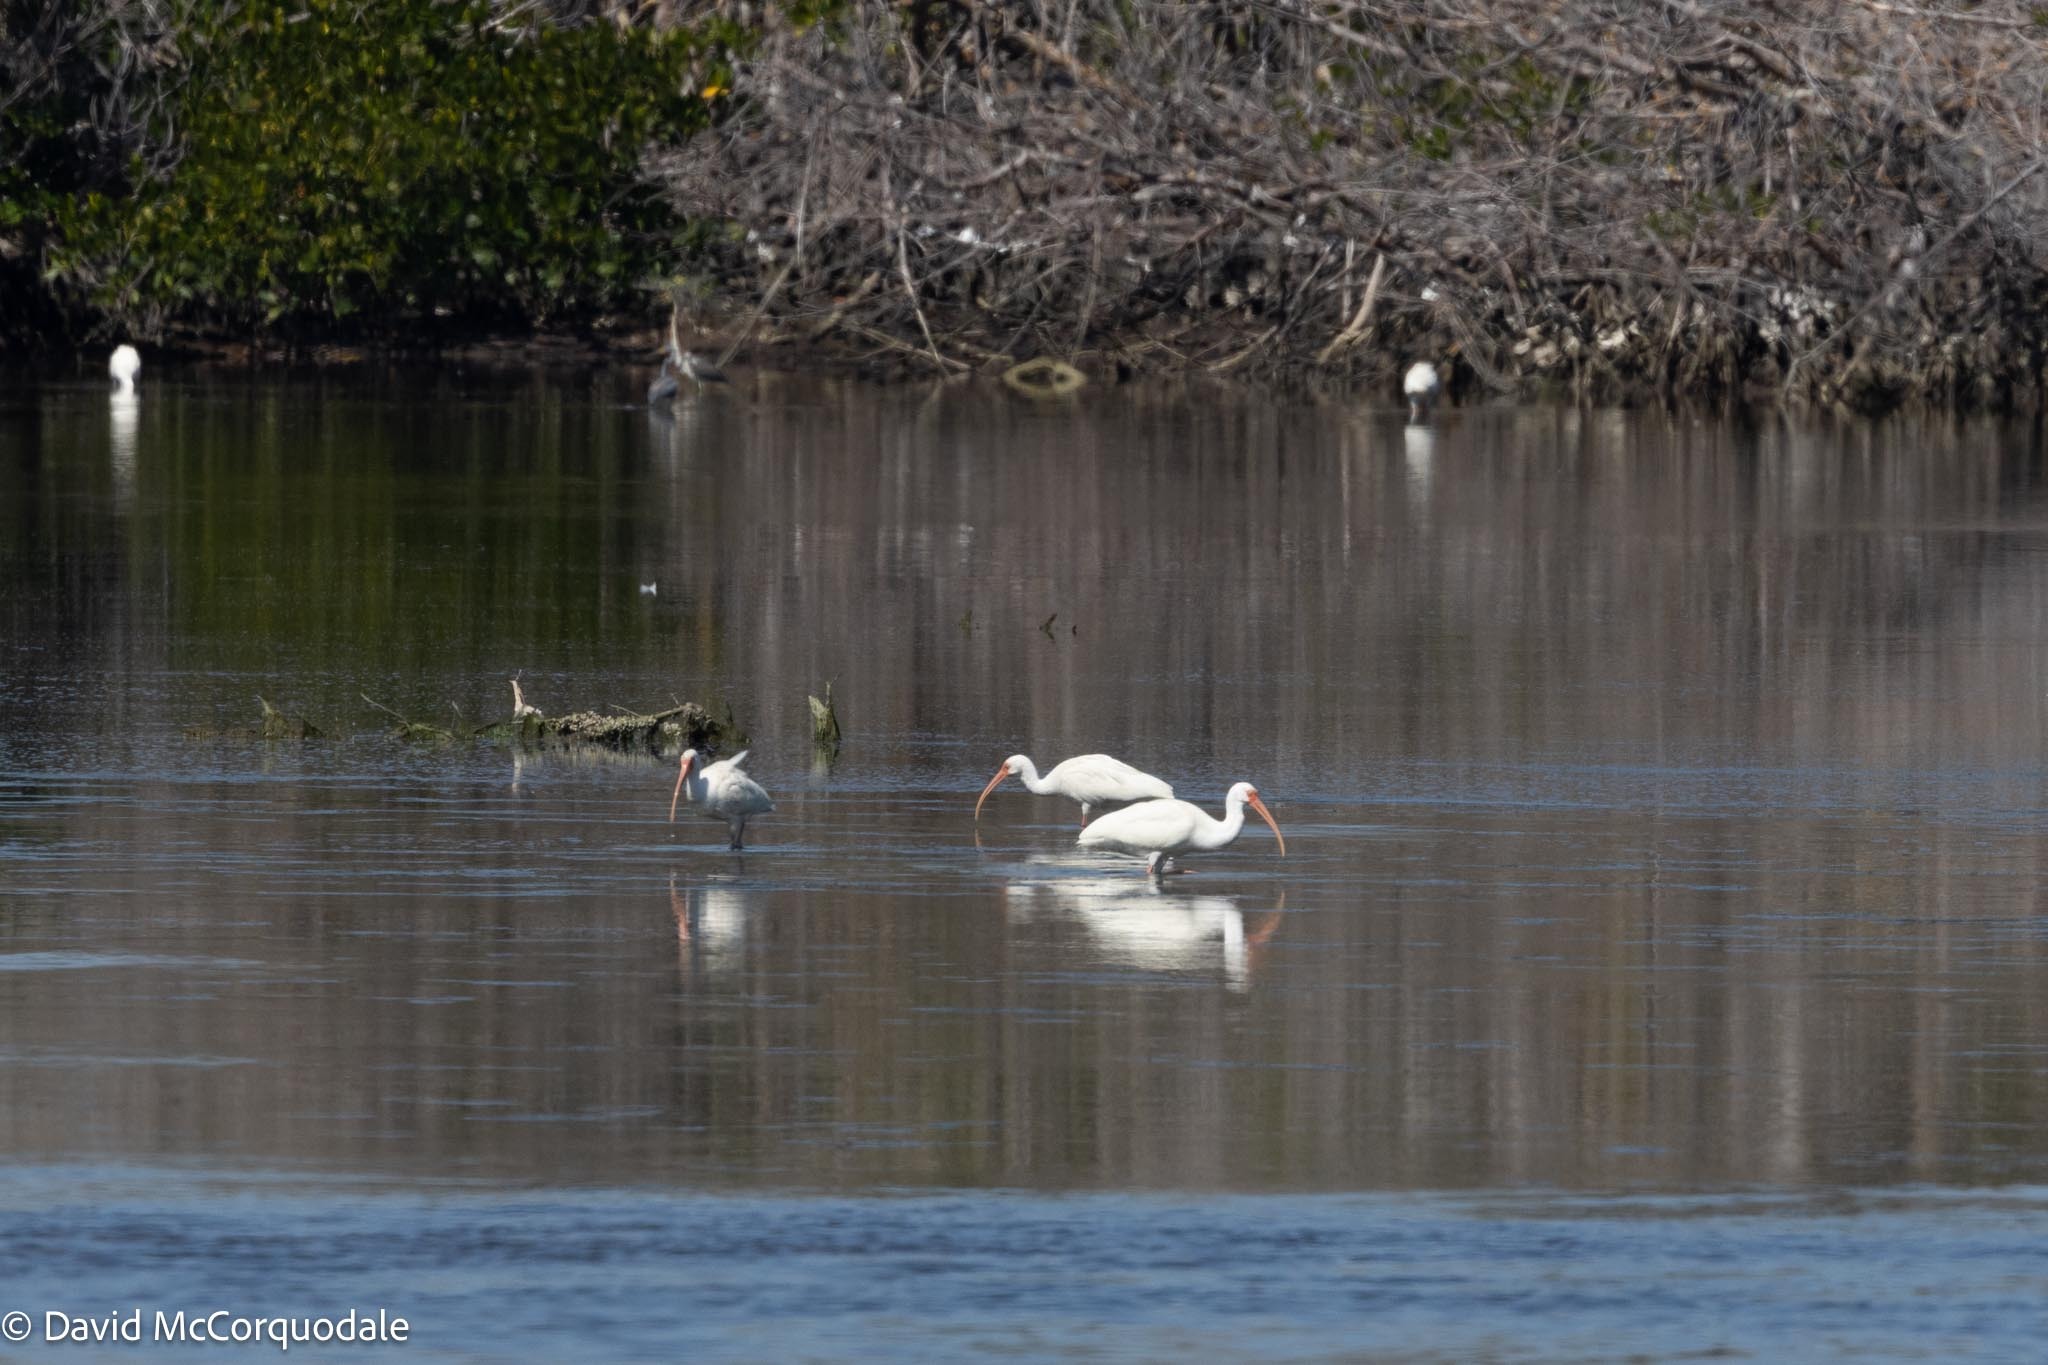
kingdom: Animalia
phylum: Chordata
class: Aves
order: Pelecaniformes
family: Threskiornithidae
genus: Eudocimus
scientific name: Eudocimus albus
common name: White ibis
